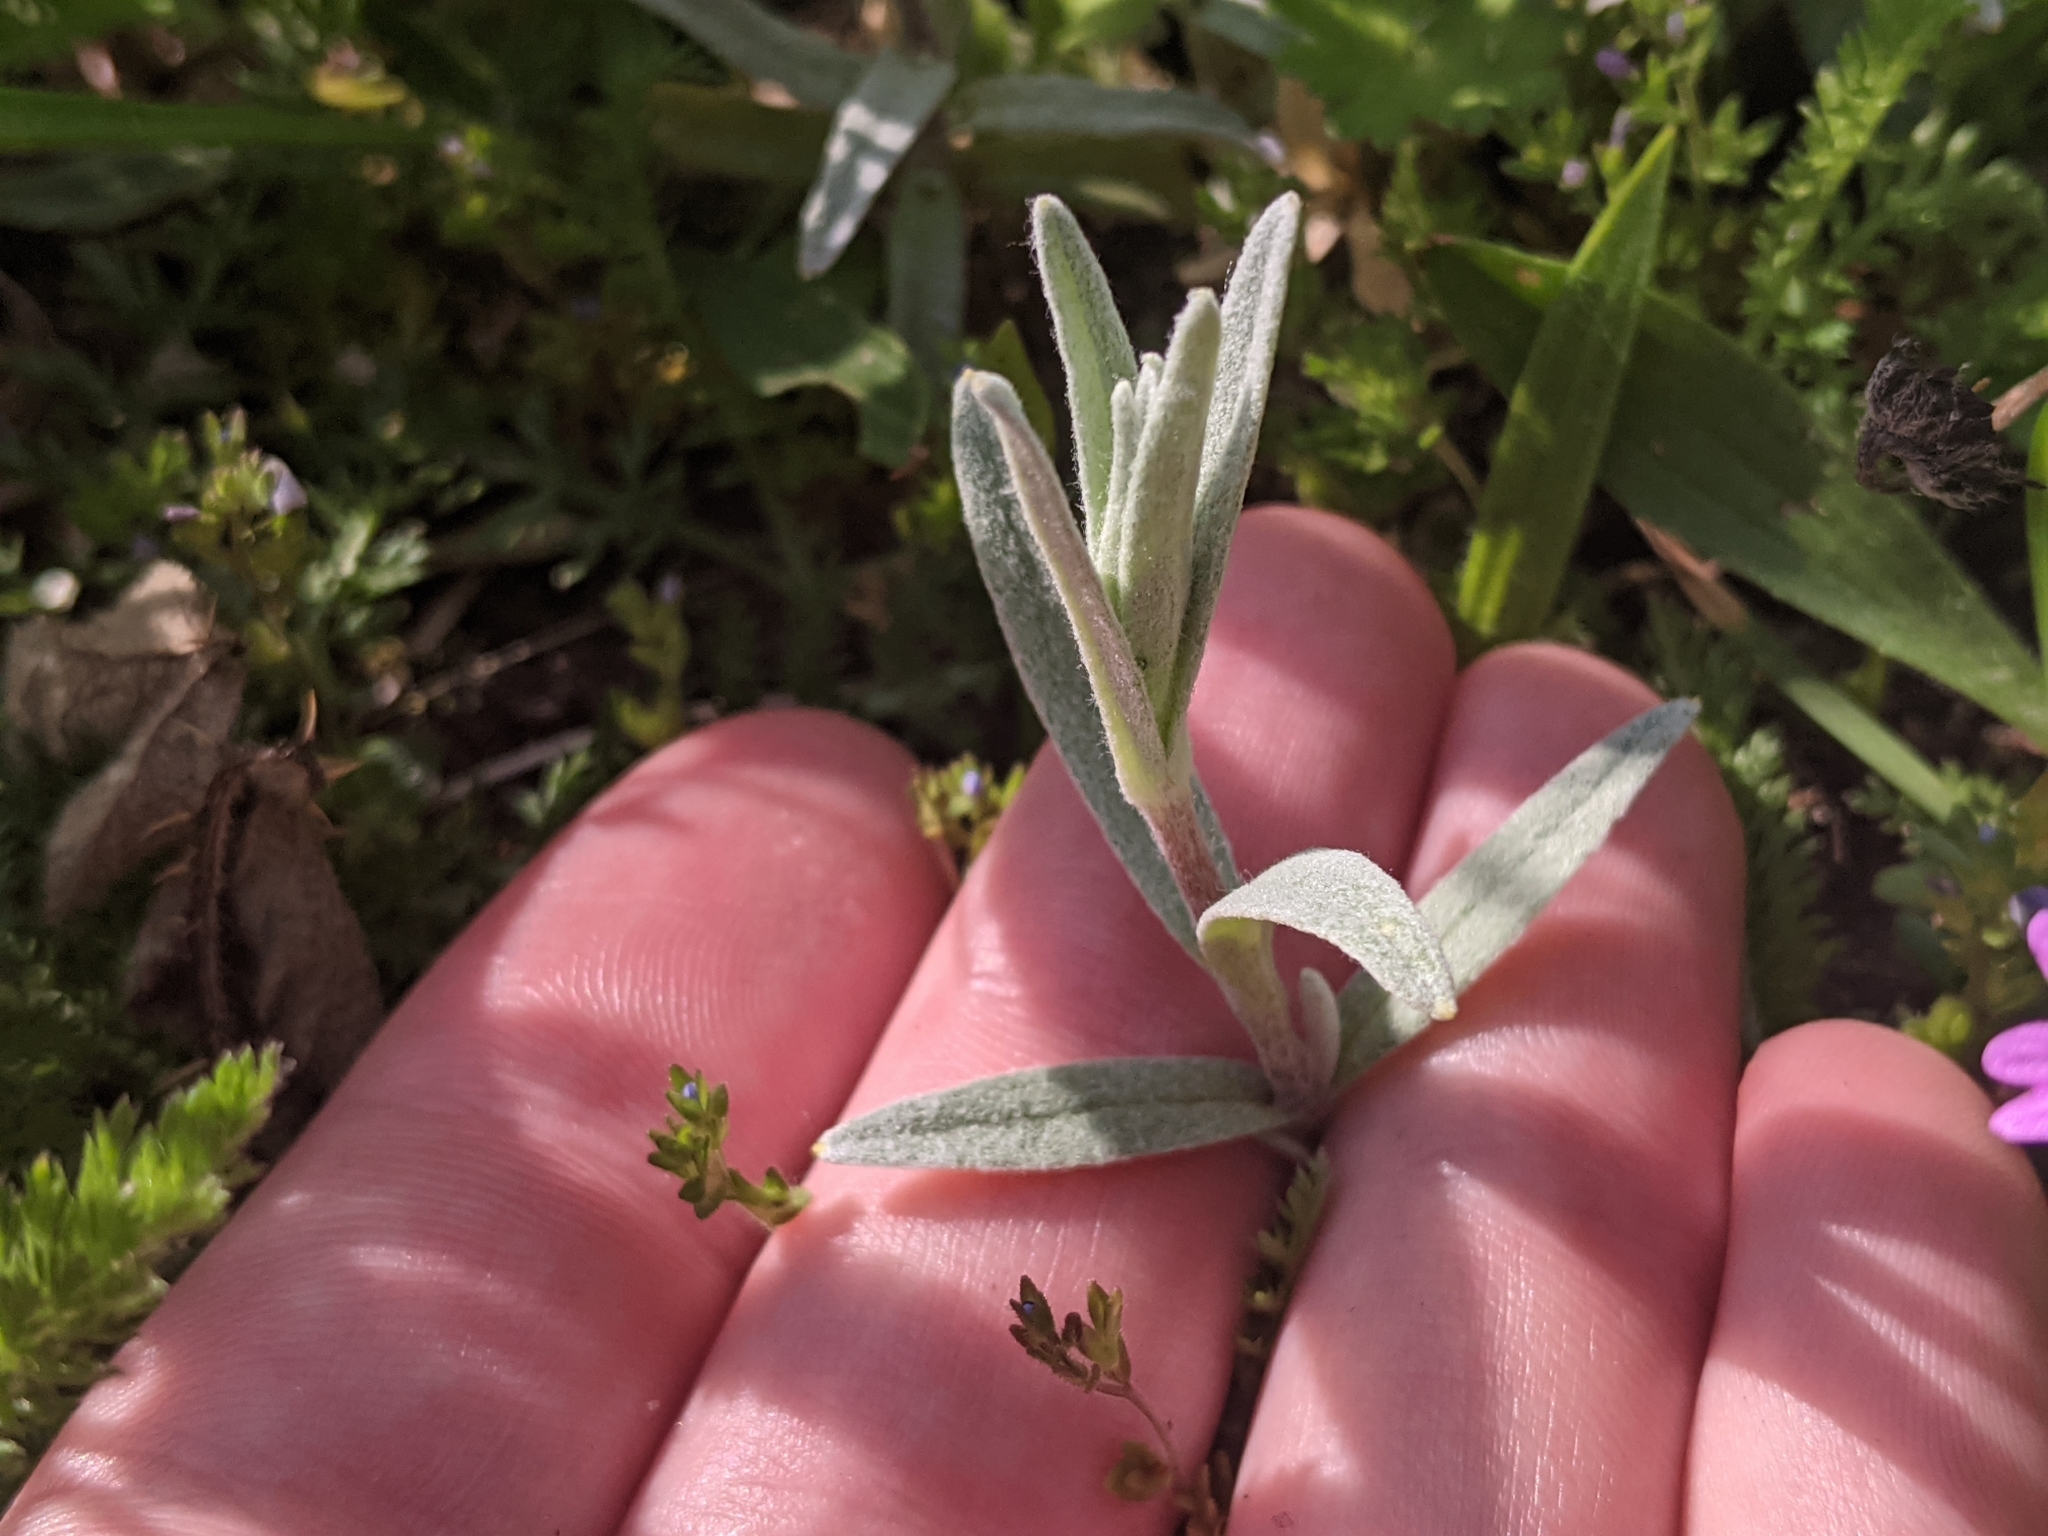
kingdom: Plantae
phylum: Tracheophyta
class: Magnoliopsida
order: Caryophyllales
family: Caryophyllaceae
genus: Cerastium
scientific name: Cerastium tomentosum
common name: Snow-in-summer
